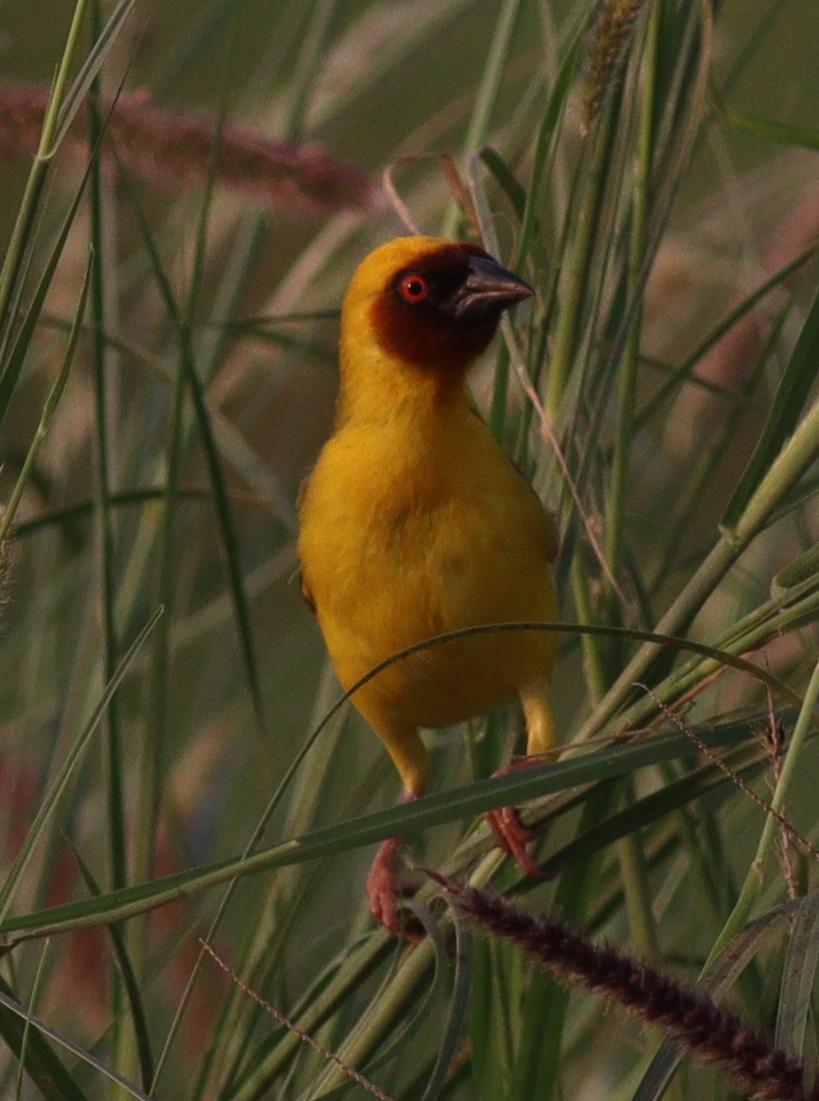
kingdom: Animalia
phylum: Chordata
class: Aves
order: Passeriformes
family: Ploceidae
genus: Ploceus
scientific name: Ploceus galbula
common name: Rüppell's weaver
